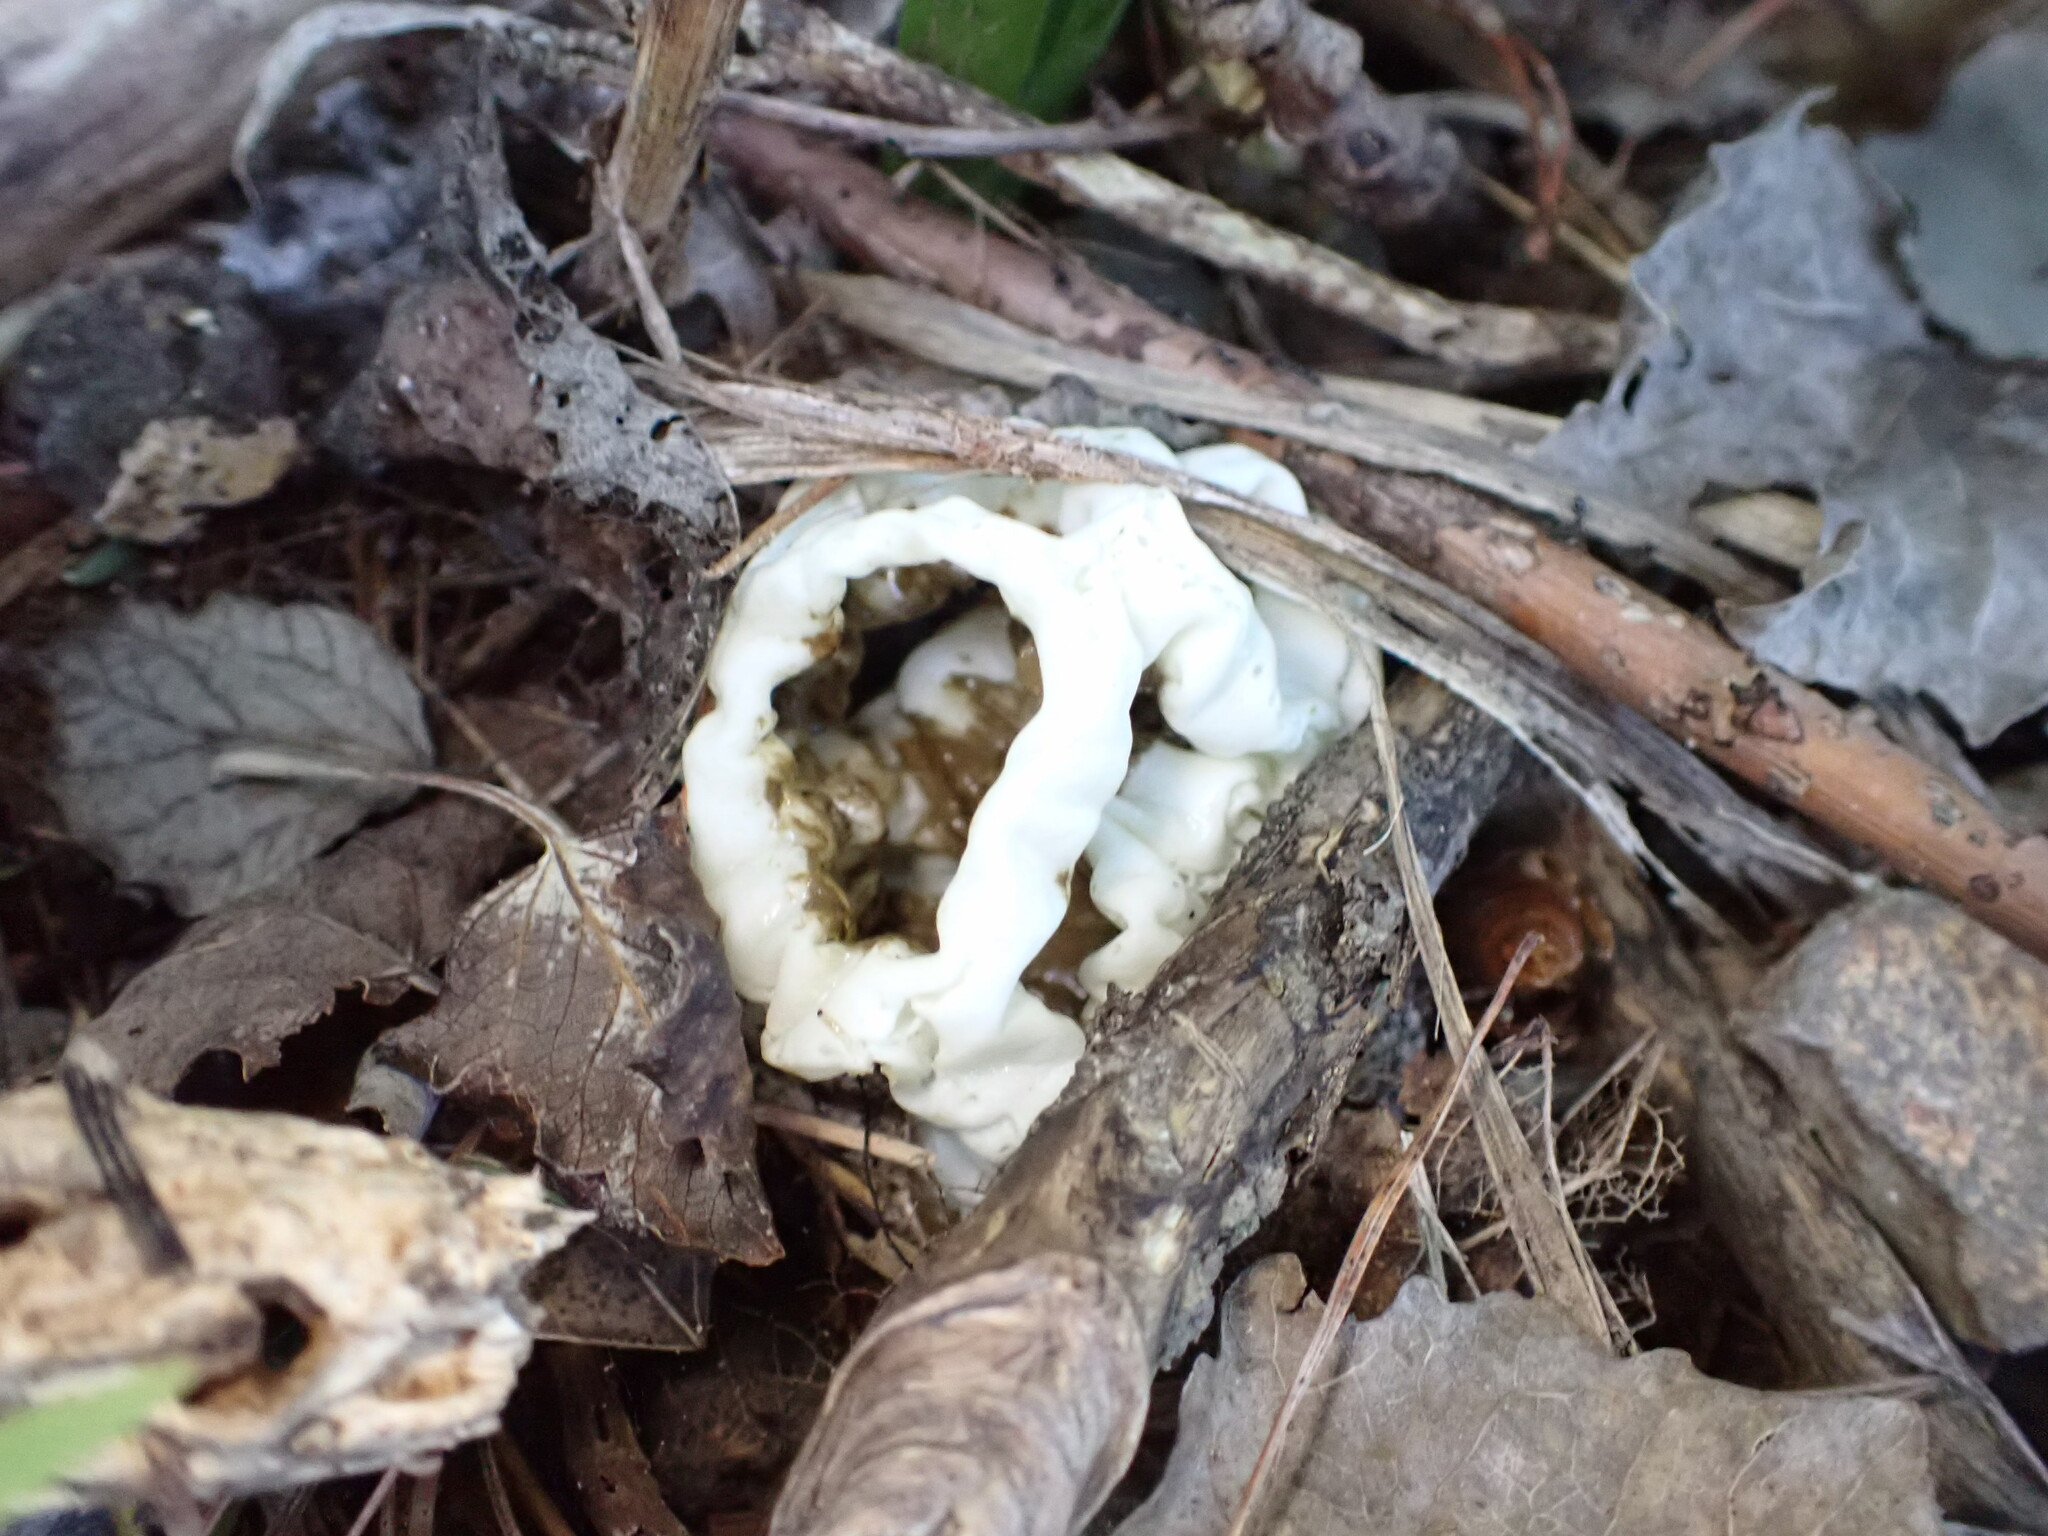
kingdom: Fungi
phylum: Basidiomycota
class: Agaricomycetes
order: Phallales
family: Phallaceae
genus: Ileodictyon
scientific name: Ileodictyon cibarium
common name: Basket fungus
